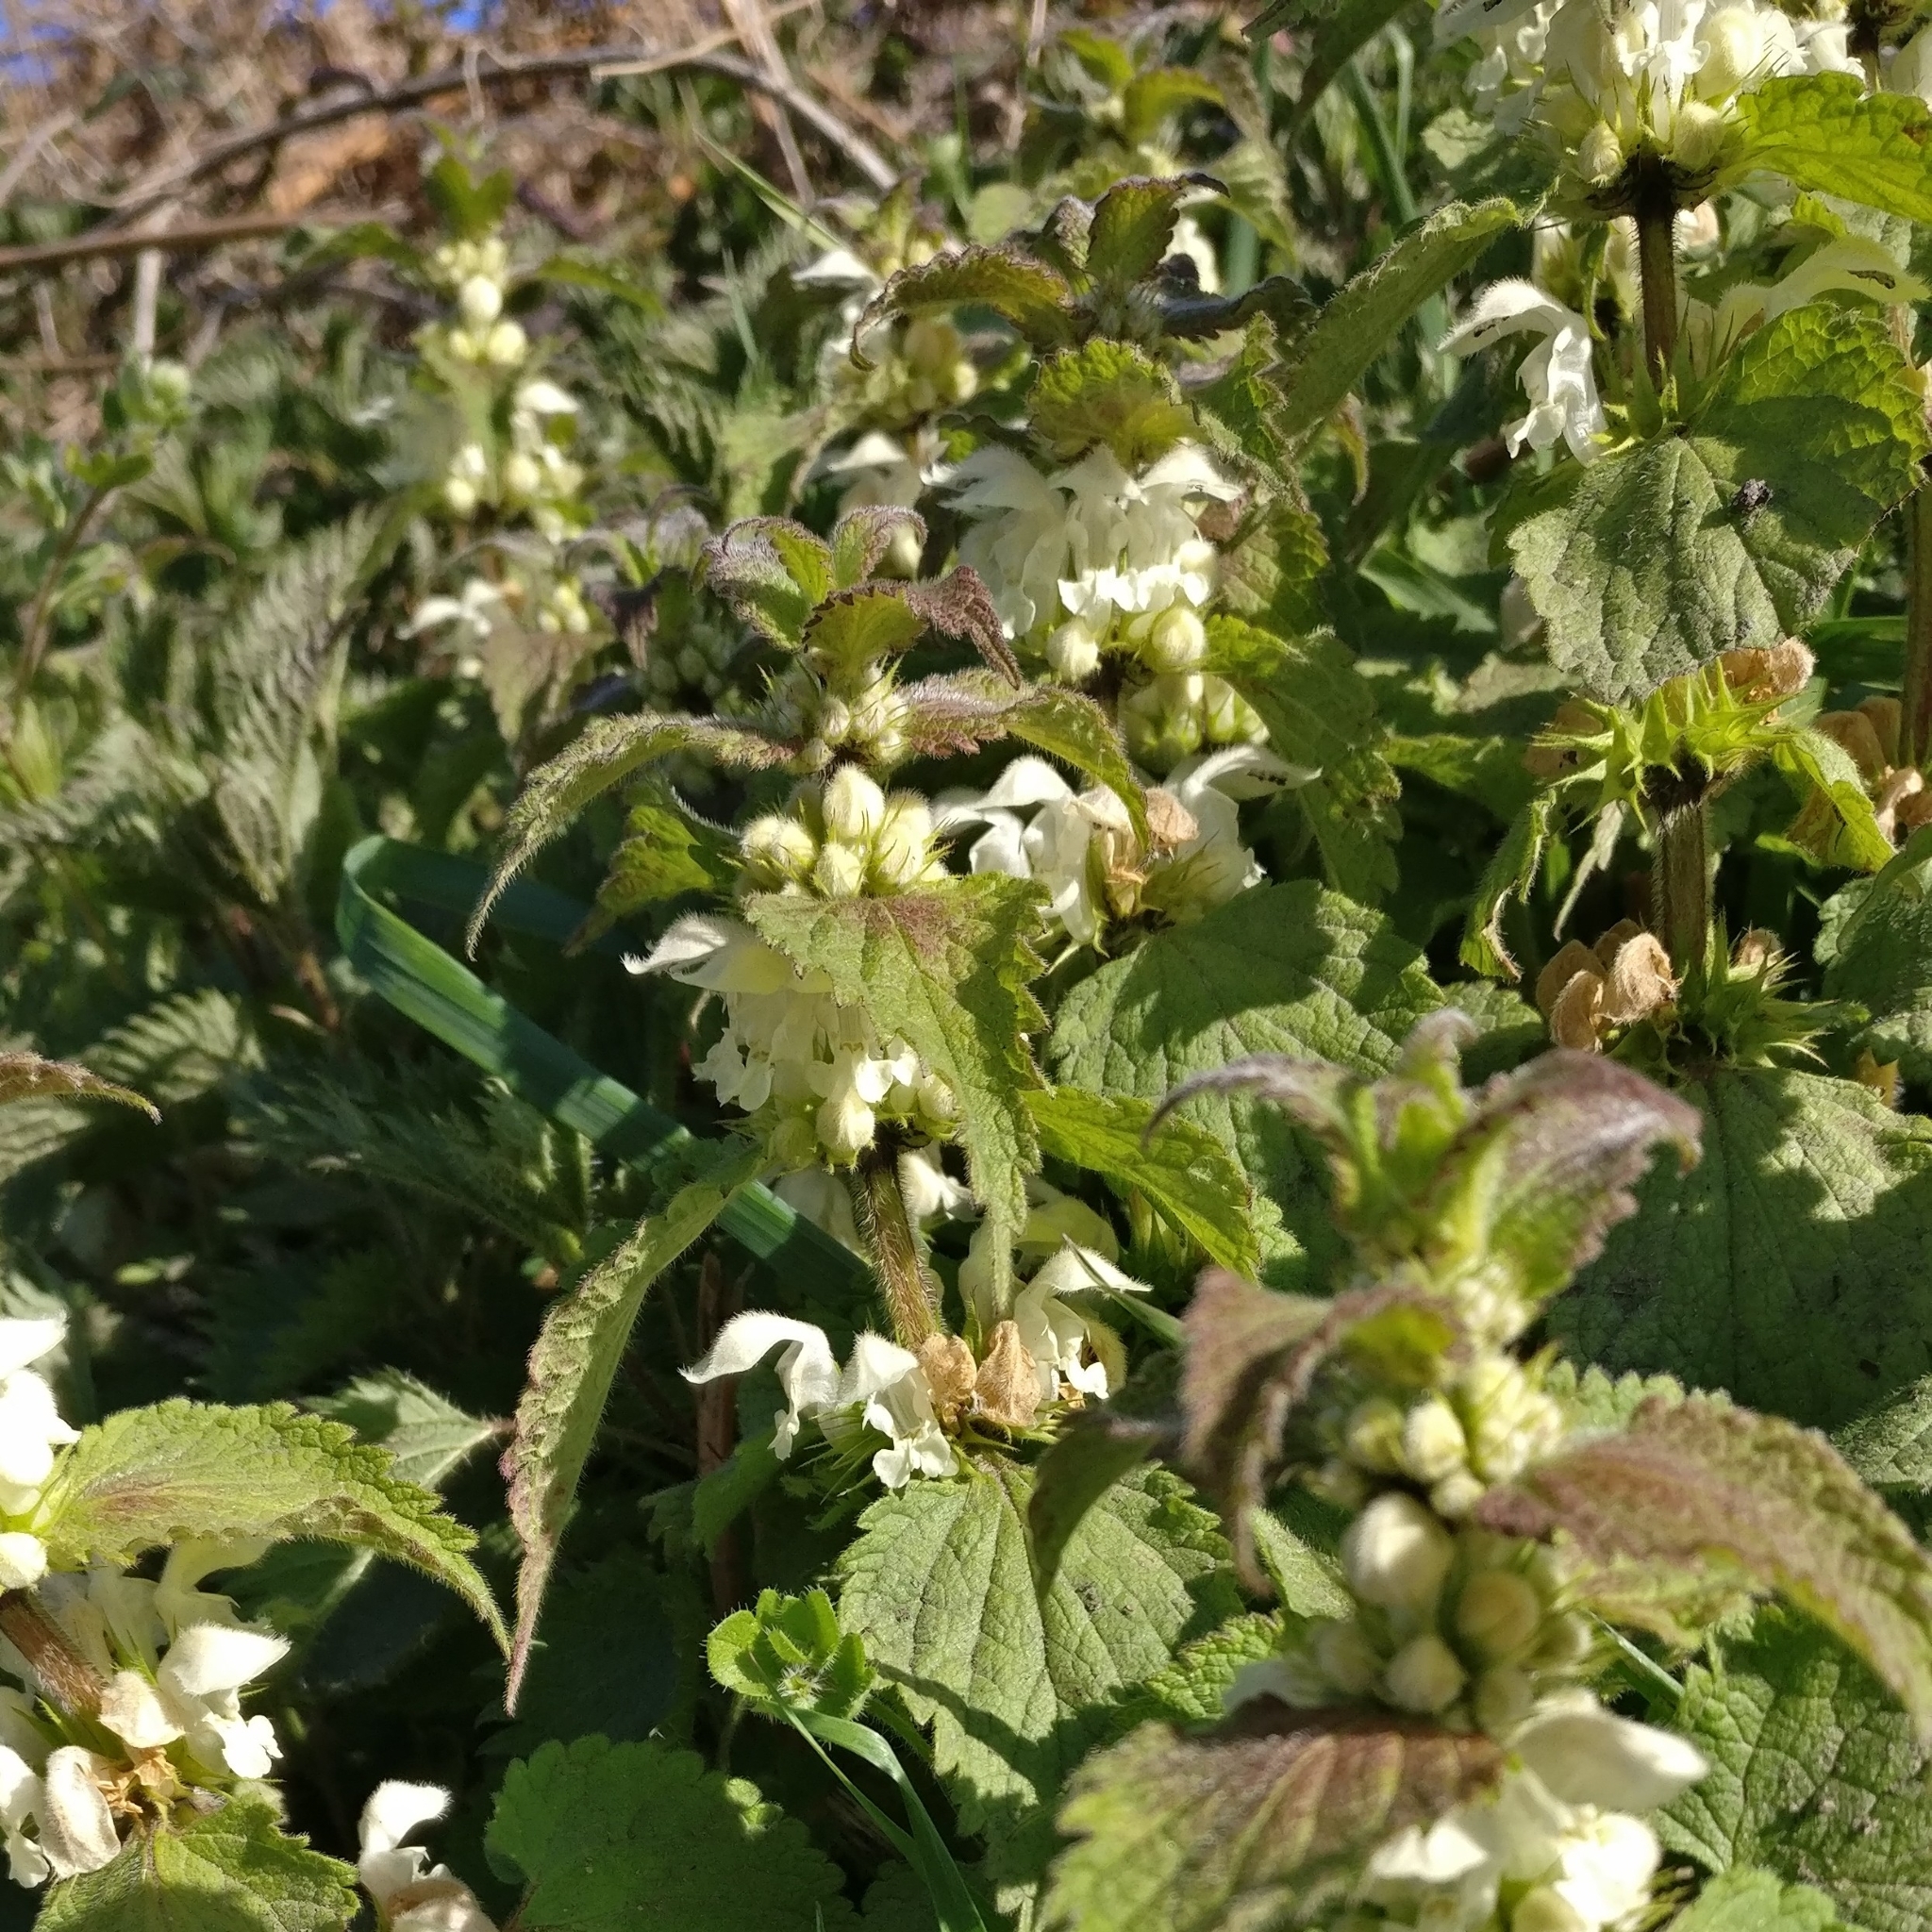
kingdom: Plantae
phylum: Tracheophyta
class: Magnoliopsida
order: Lamiales
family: Lamiaceae
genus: Lamium
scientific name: Lamium album
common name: White dead-nettle
